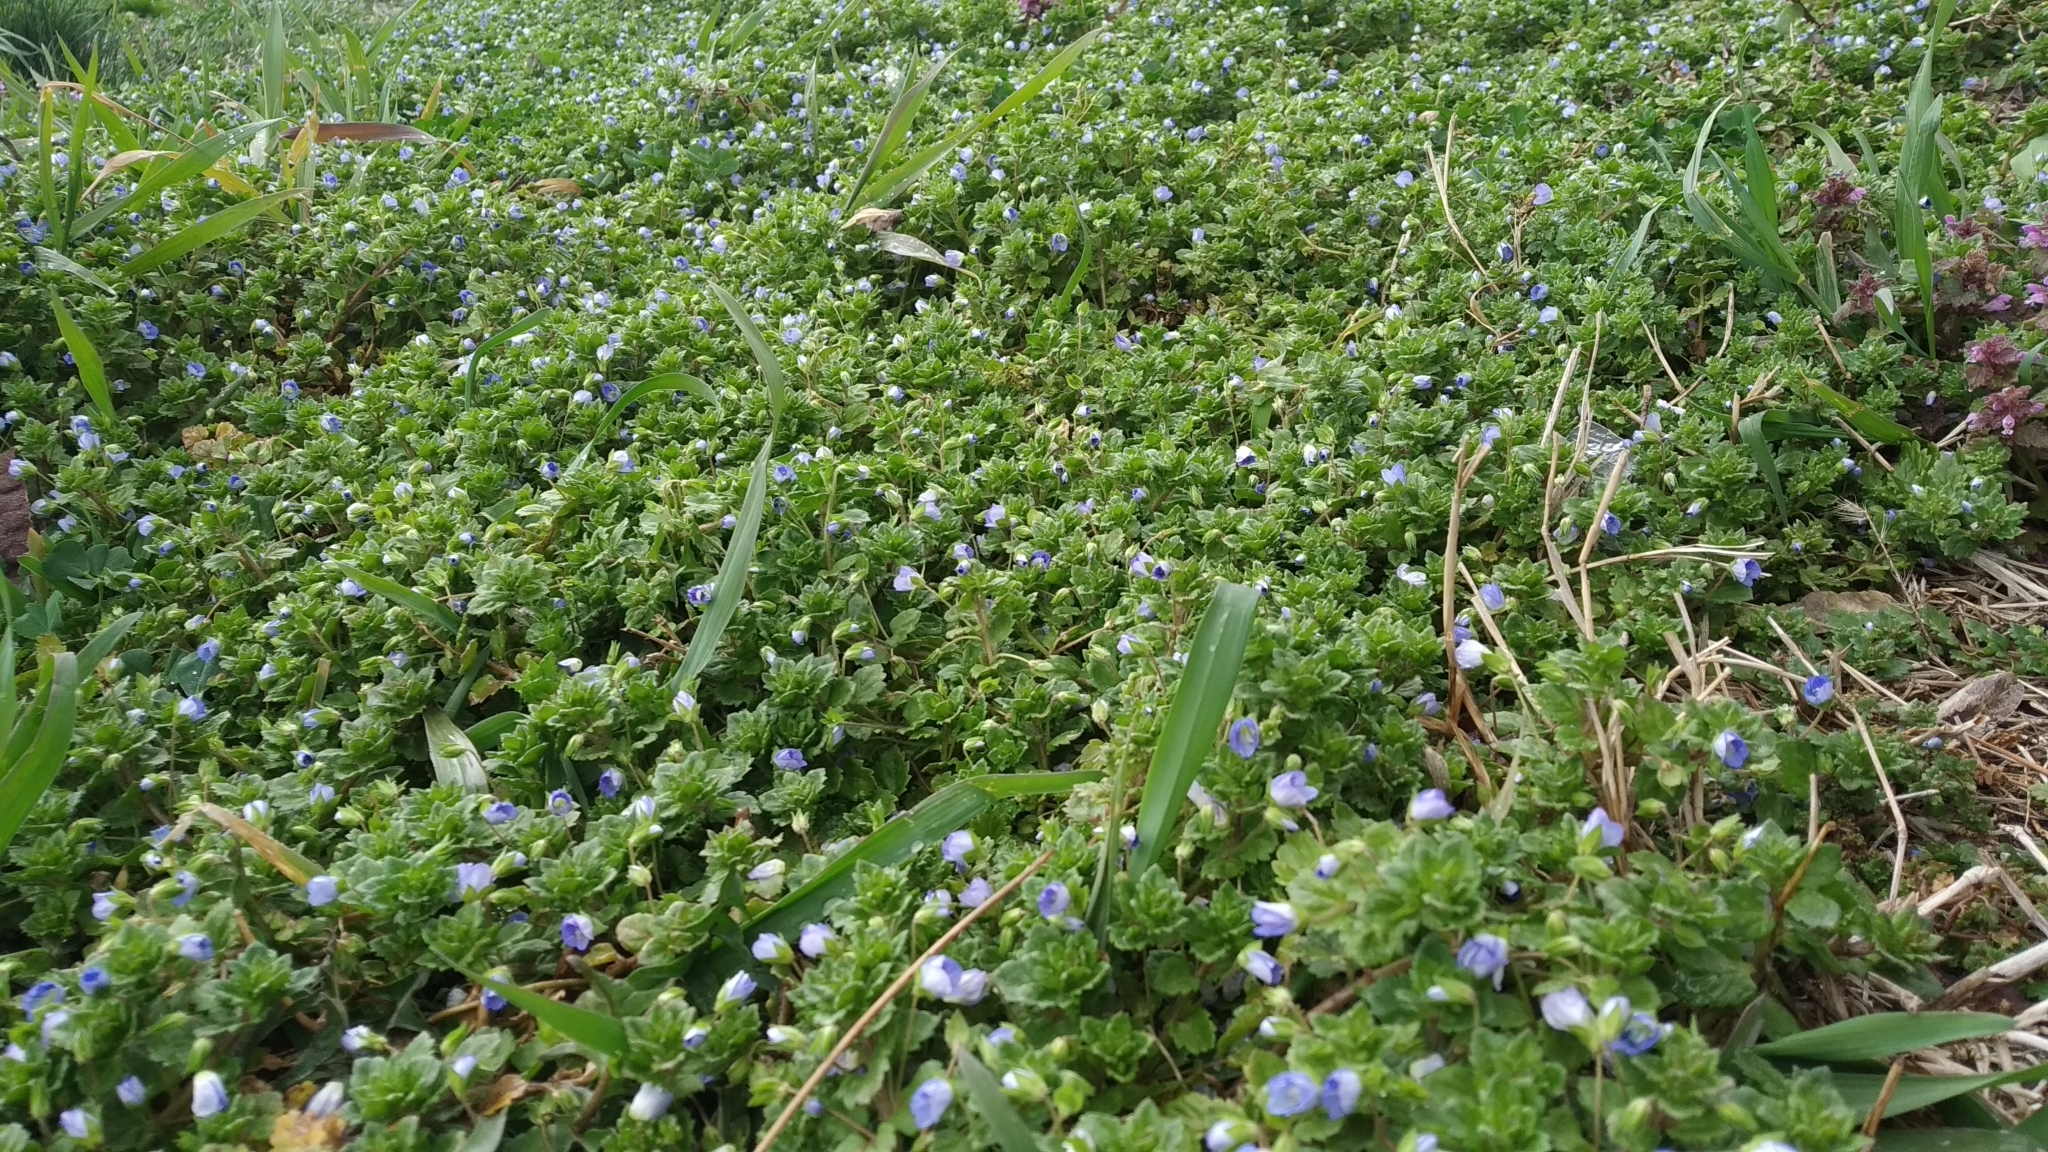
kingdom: Plantae
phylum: Tracheophyta
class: Magnoliopsida
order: Lamiales
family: Plantaginaceae
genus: Veronica
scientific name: Veronica persica
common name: Common field-speedwell
